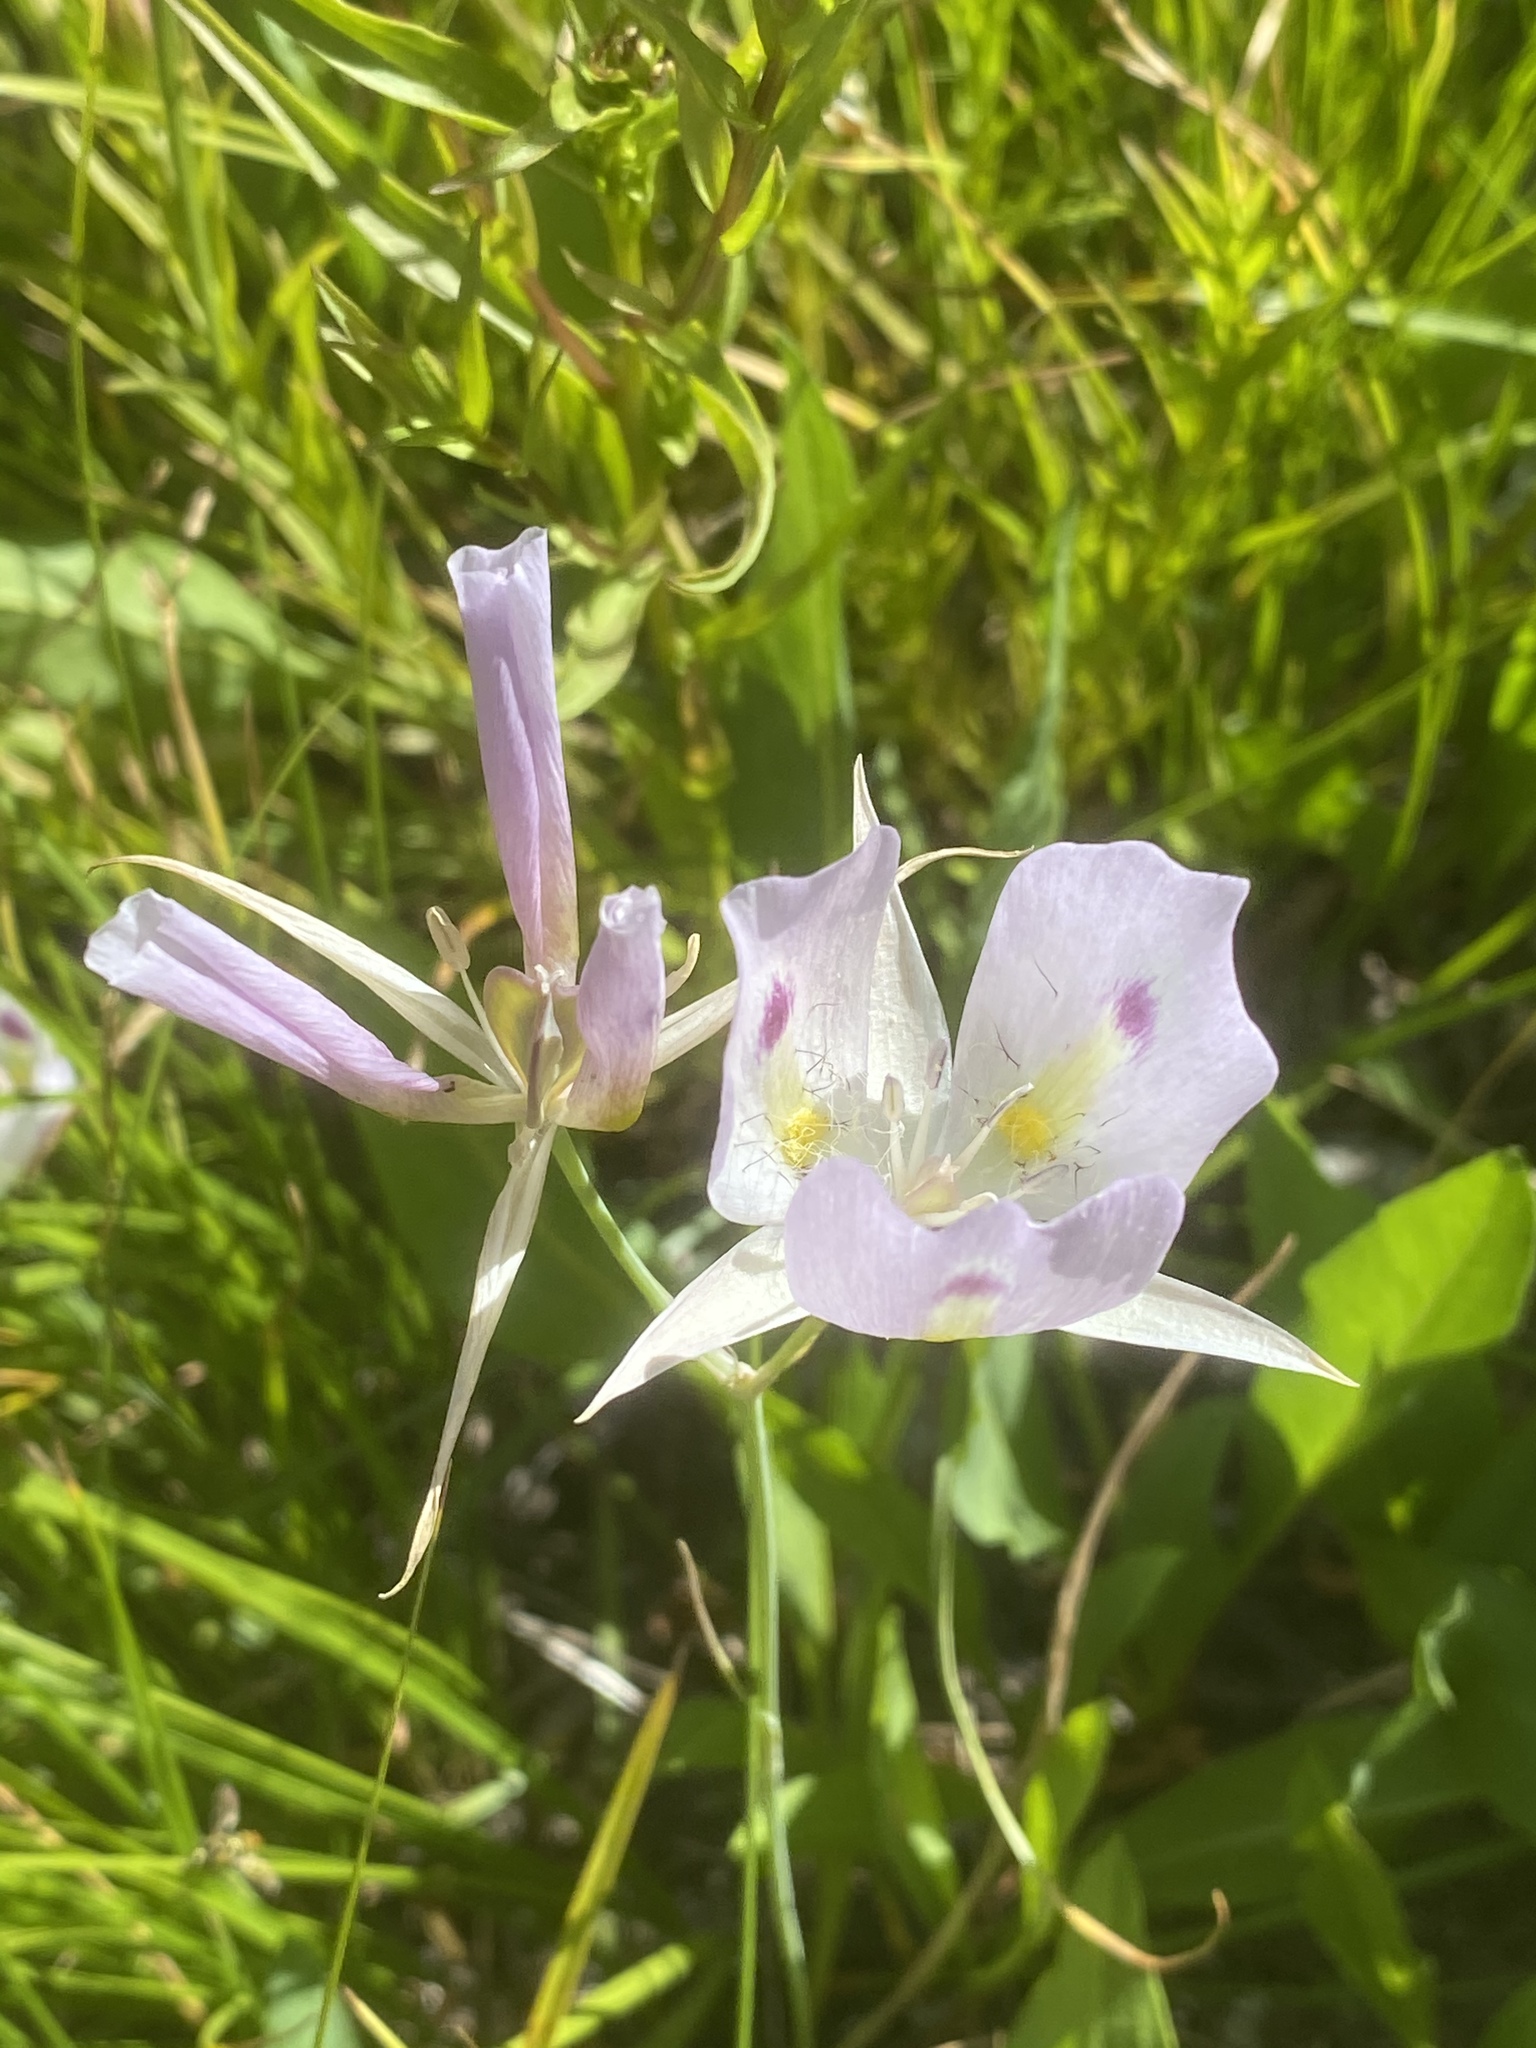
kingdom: Plantae
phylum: Tracheophyta
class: Liliopsida
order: Liliales
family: Liliaceae
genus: Calochortus
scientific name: Calochortus eurycarpus
